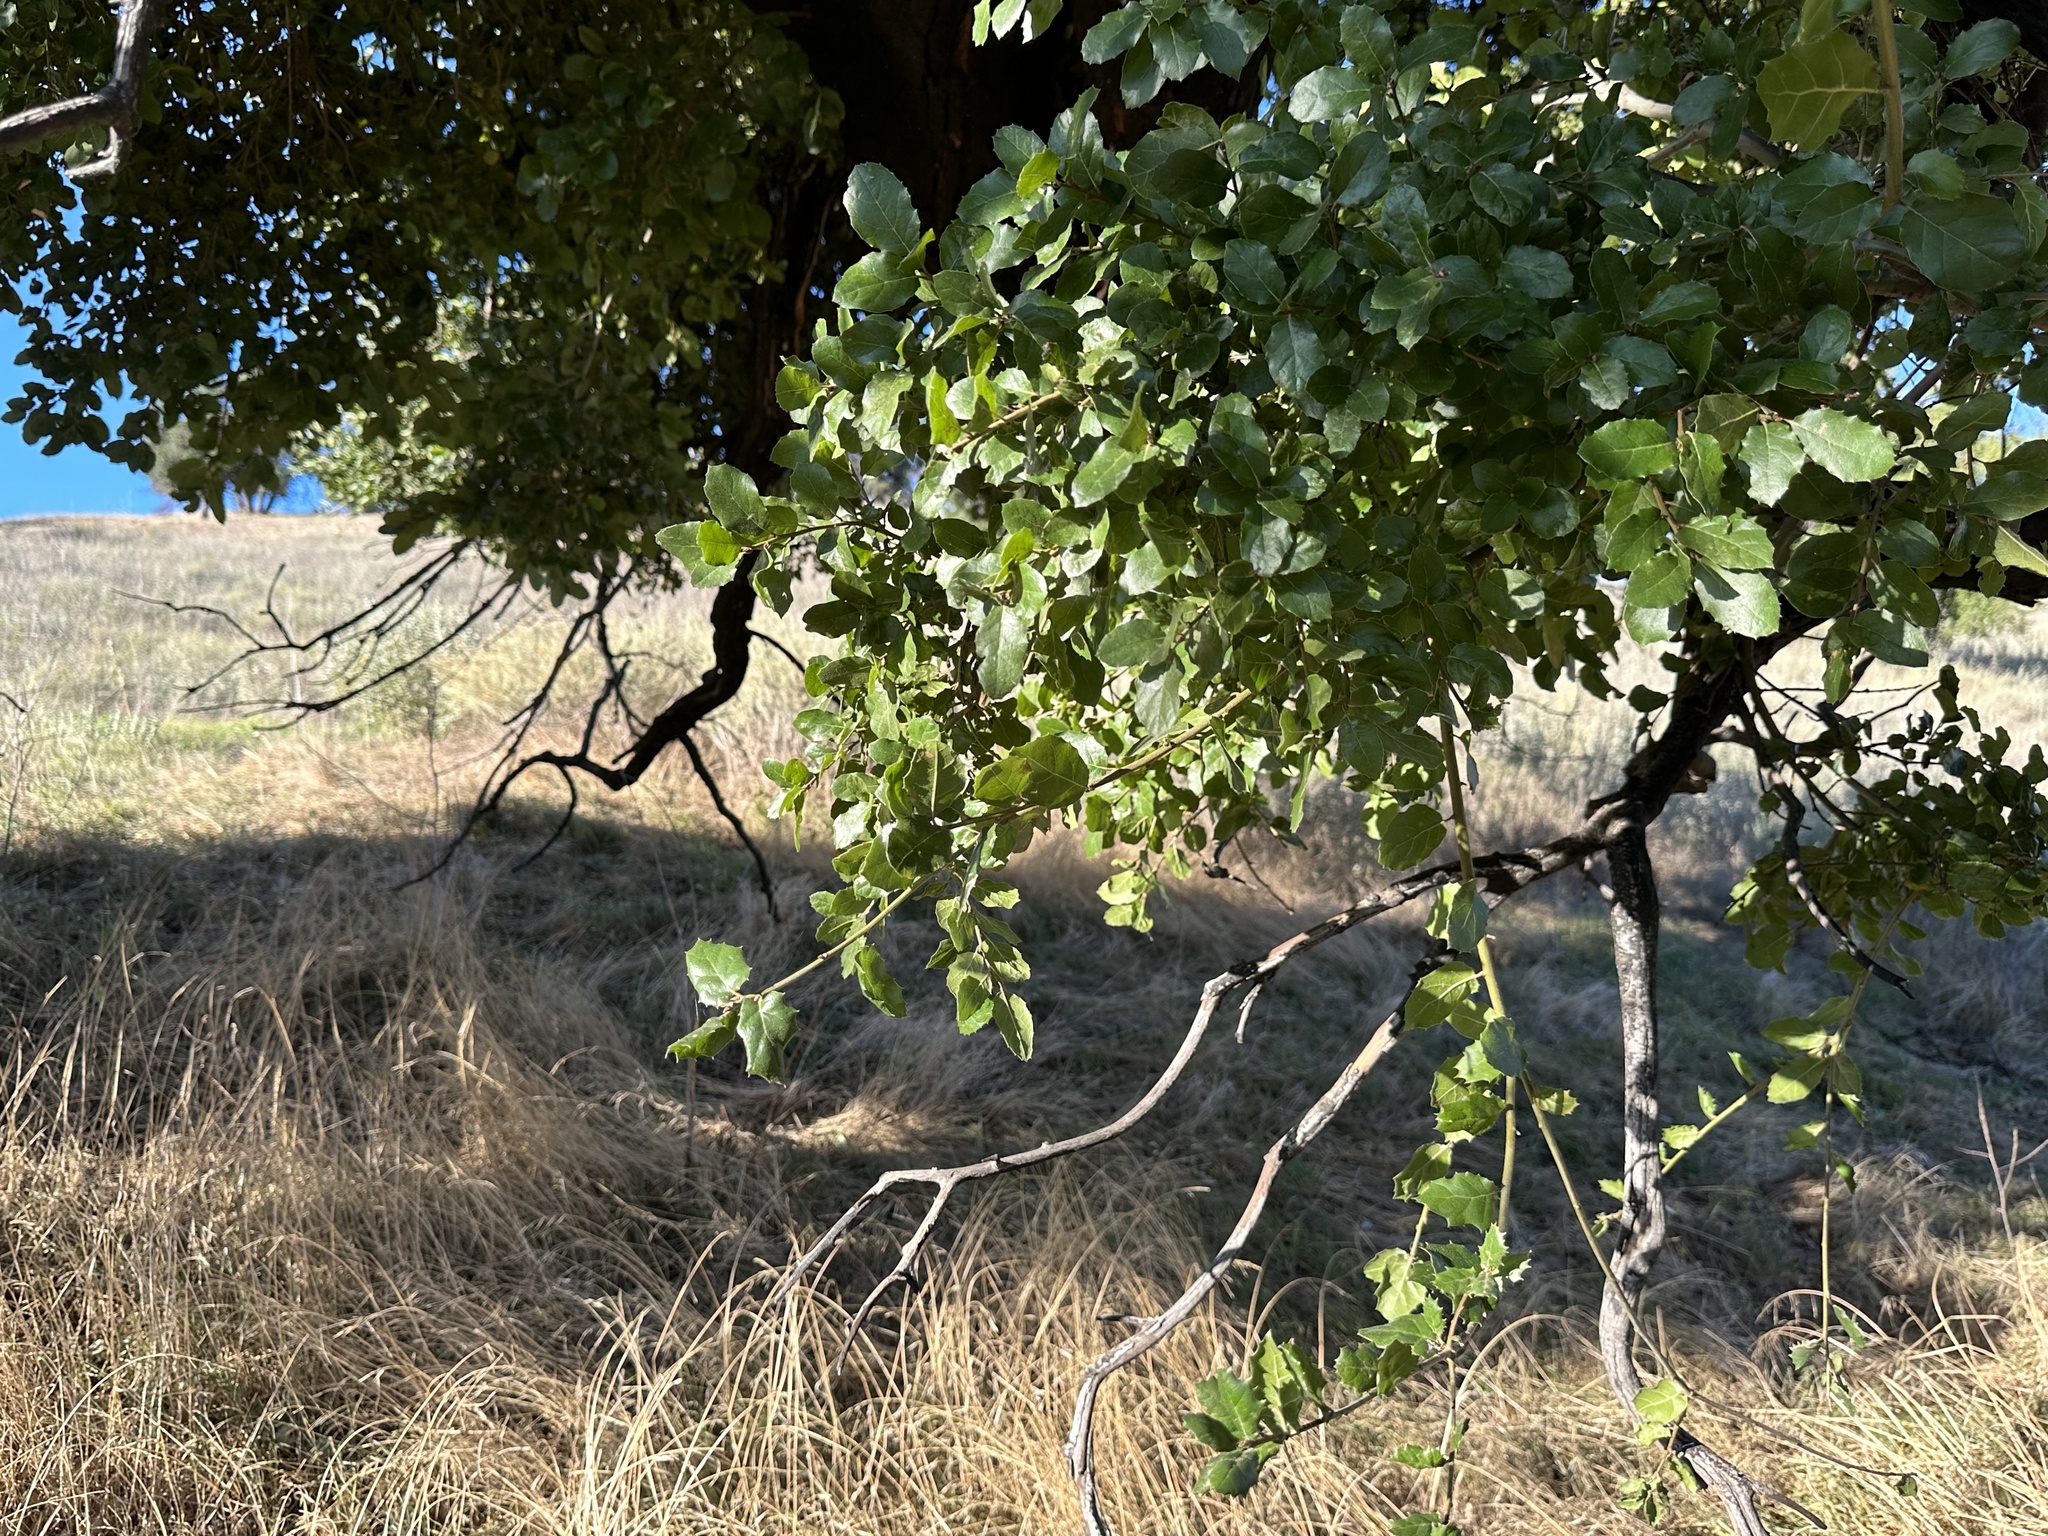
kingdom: Plantae
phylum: Tracheophyta
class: Magnoliopsida
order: Fagales
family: Fagaceae
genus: Quercus
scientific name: Quercus agrifolia
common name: California live oak
